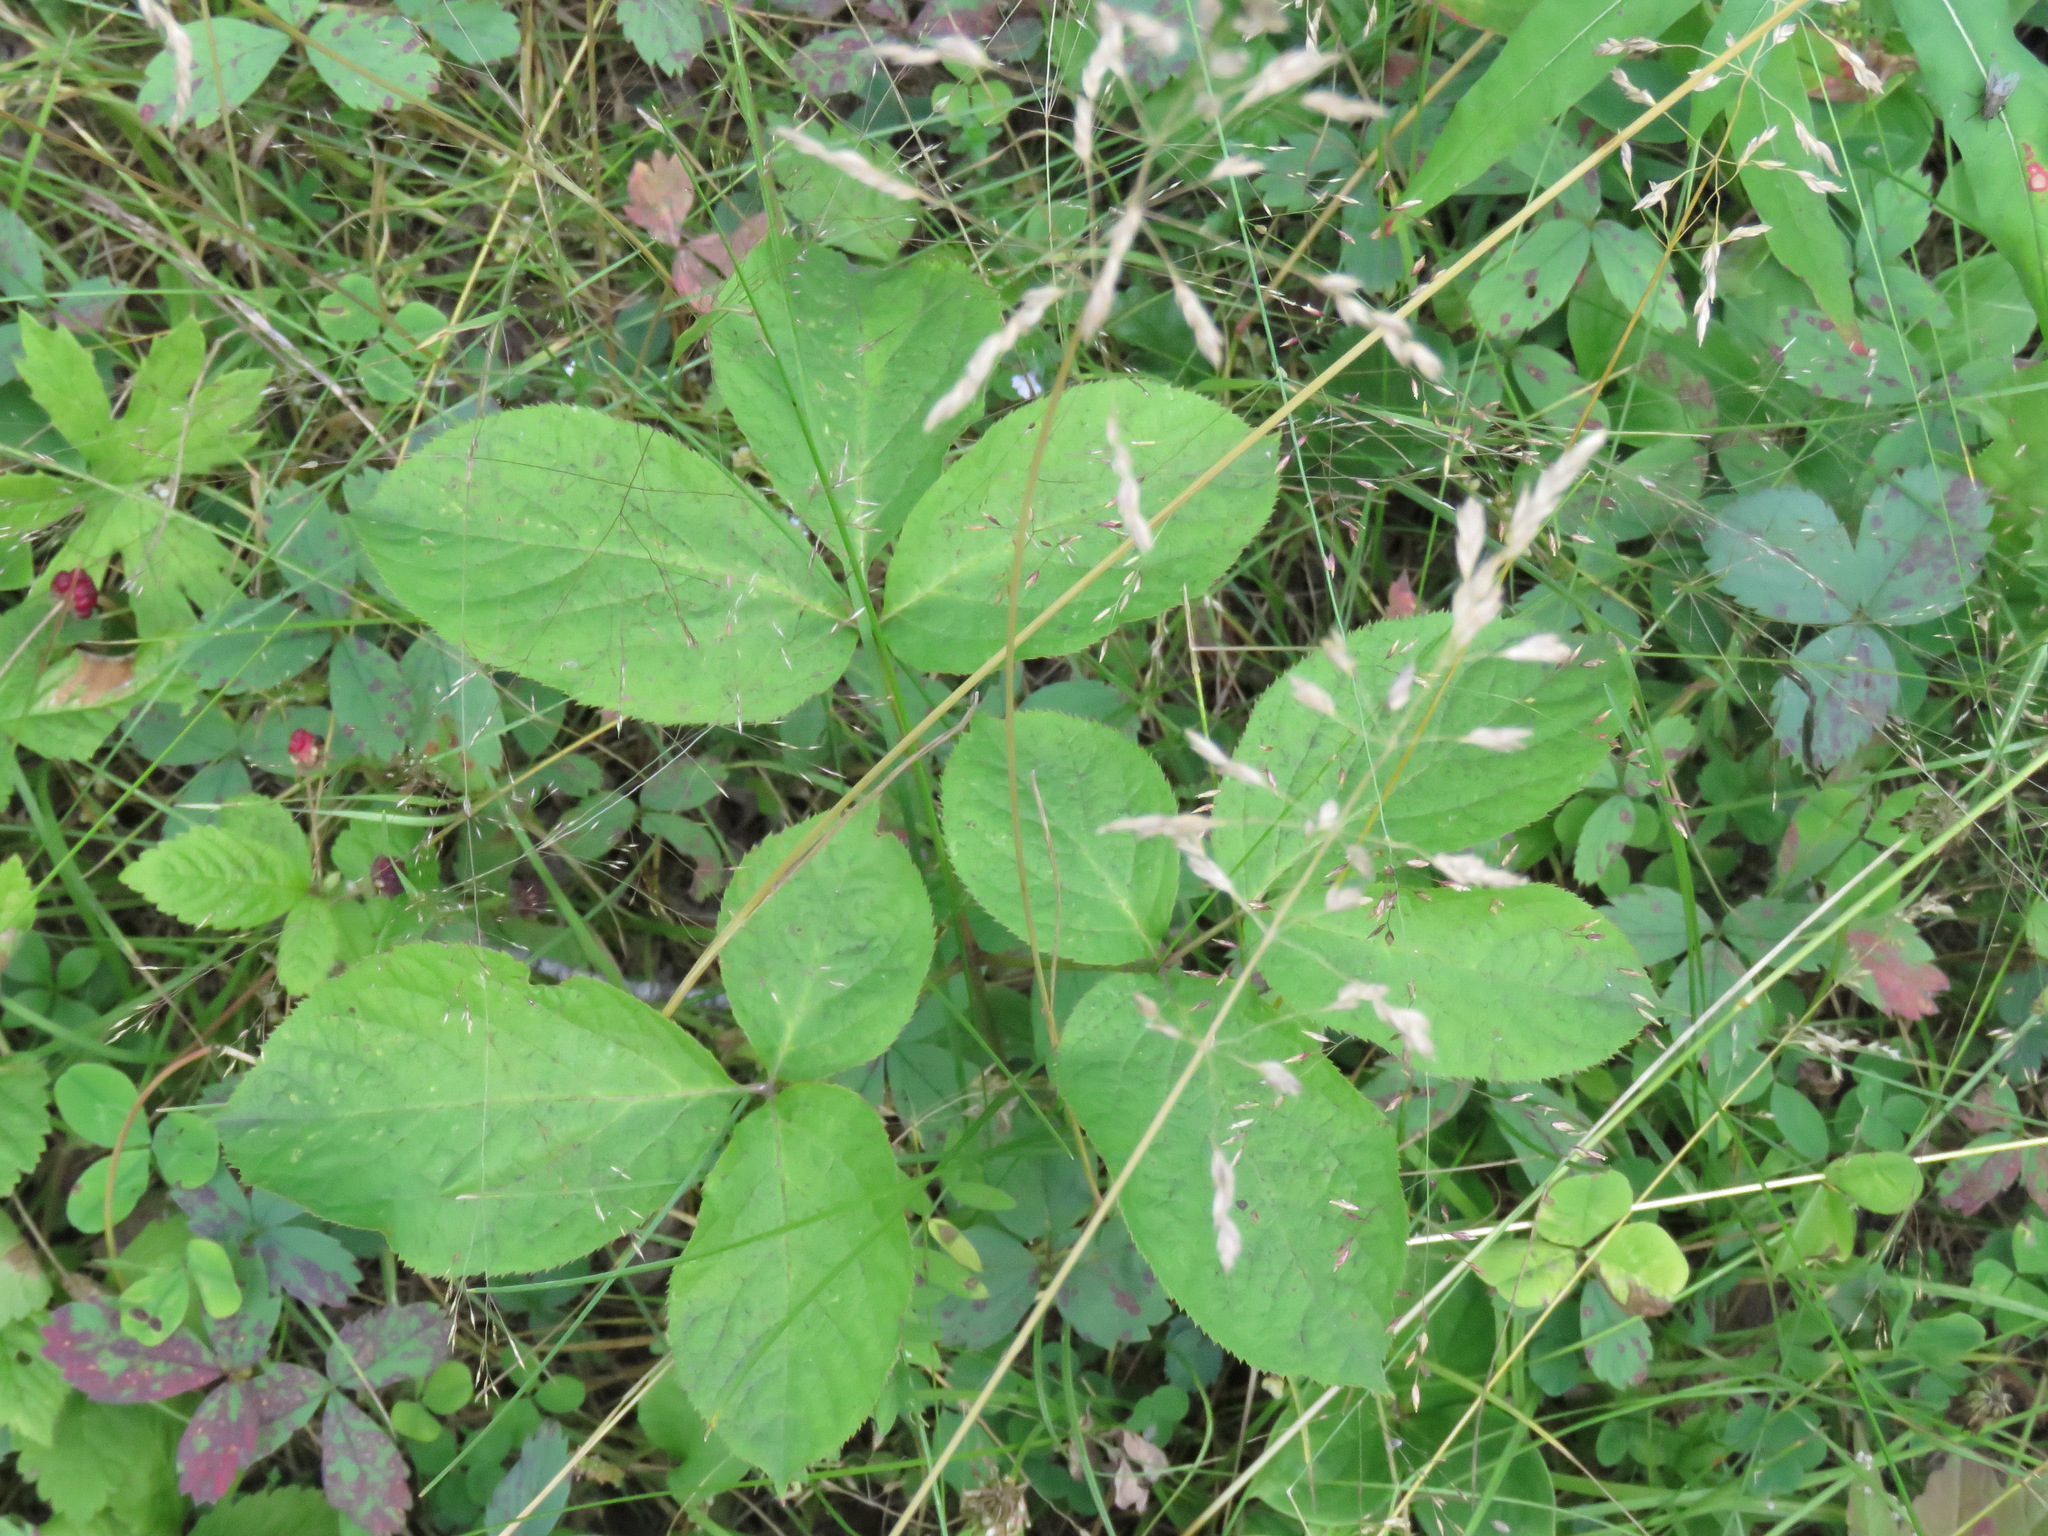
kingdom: Plantae
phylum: Tracheophyta
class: Magnoliopsida
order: Apiales
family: Araliaceae
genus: Aralia
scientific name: Aralia nudicaulis
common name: Wild sarsaparilla
